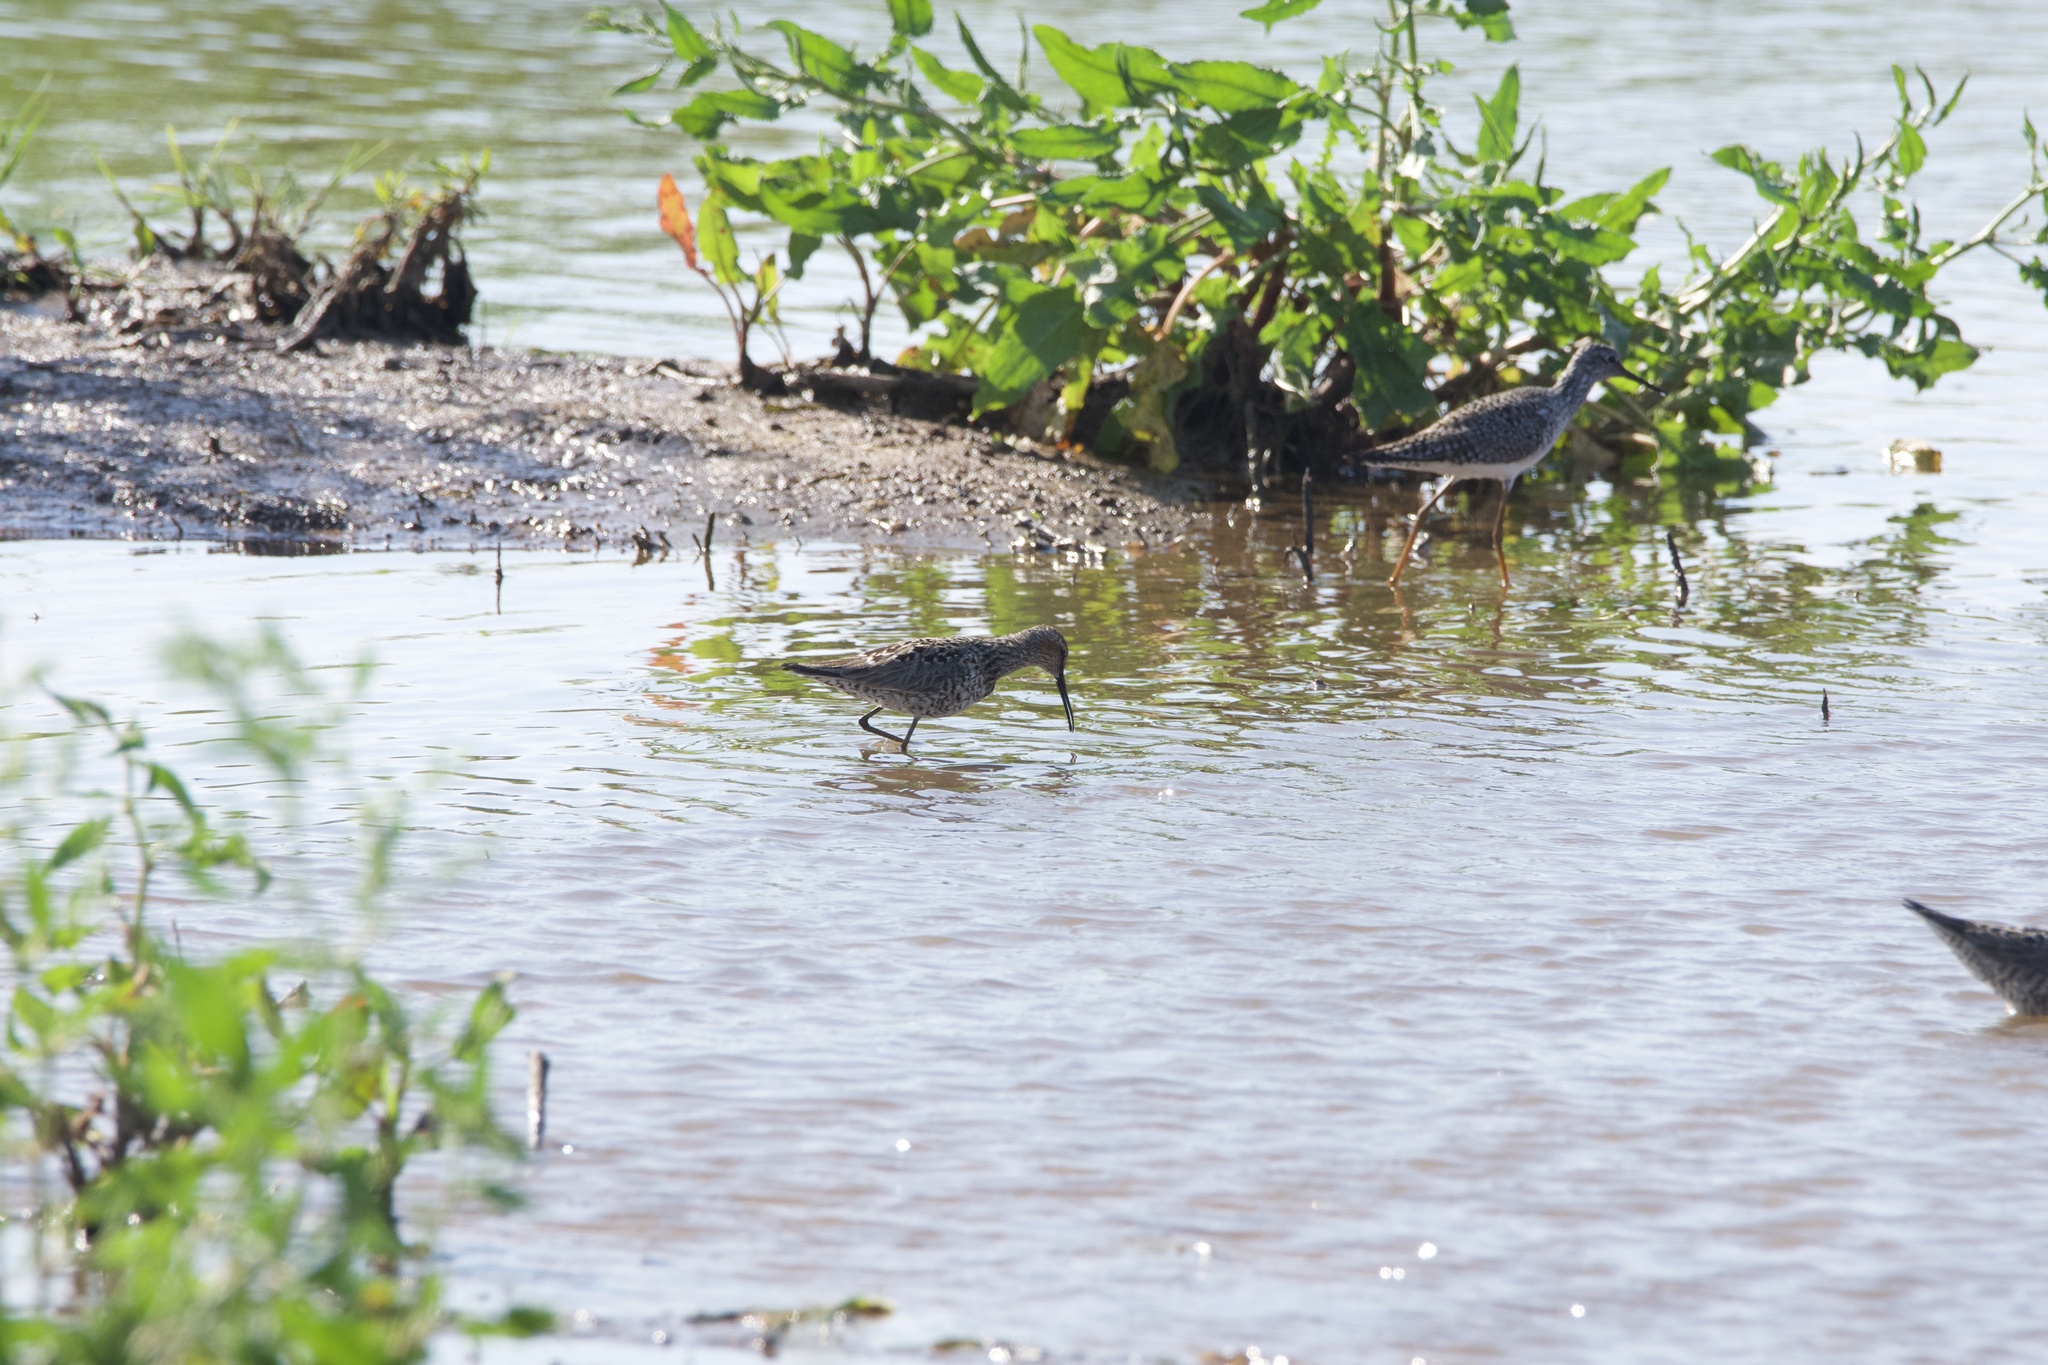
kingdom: Animalia
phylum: Chordata
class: Aves
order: Charadriiformes
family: Scolopacidae
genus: Calidris
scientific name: Calidris himantopus
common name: Stilt sandpiper
